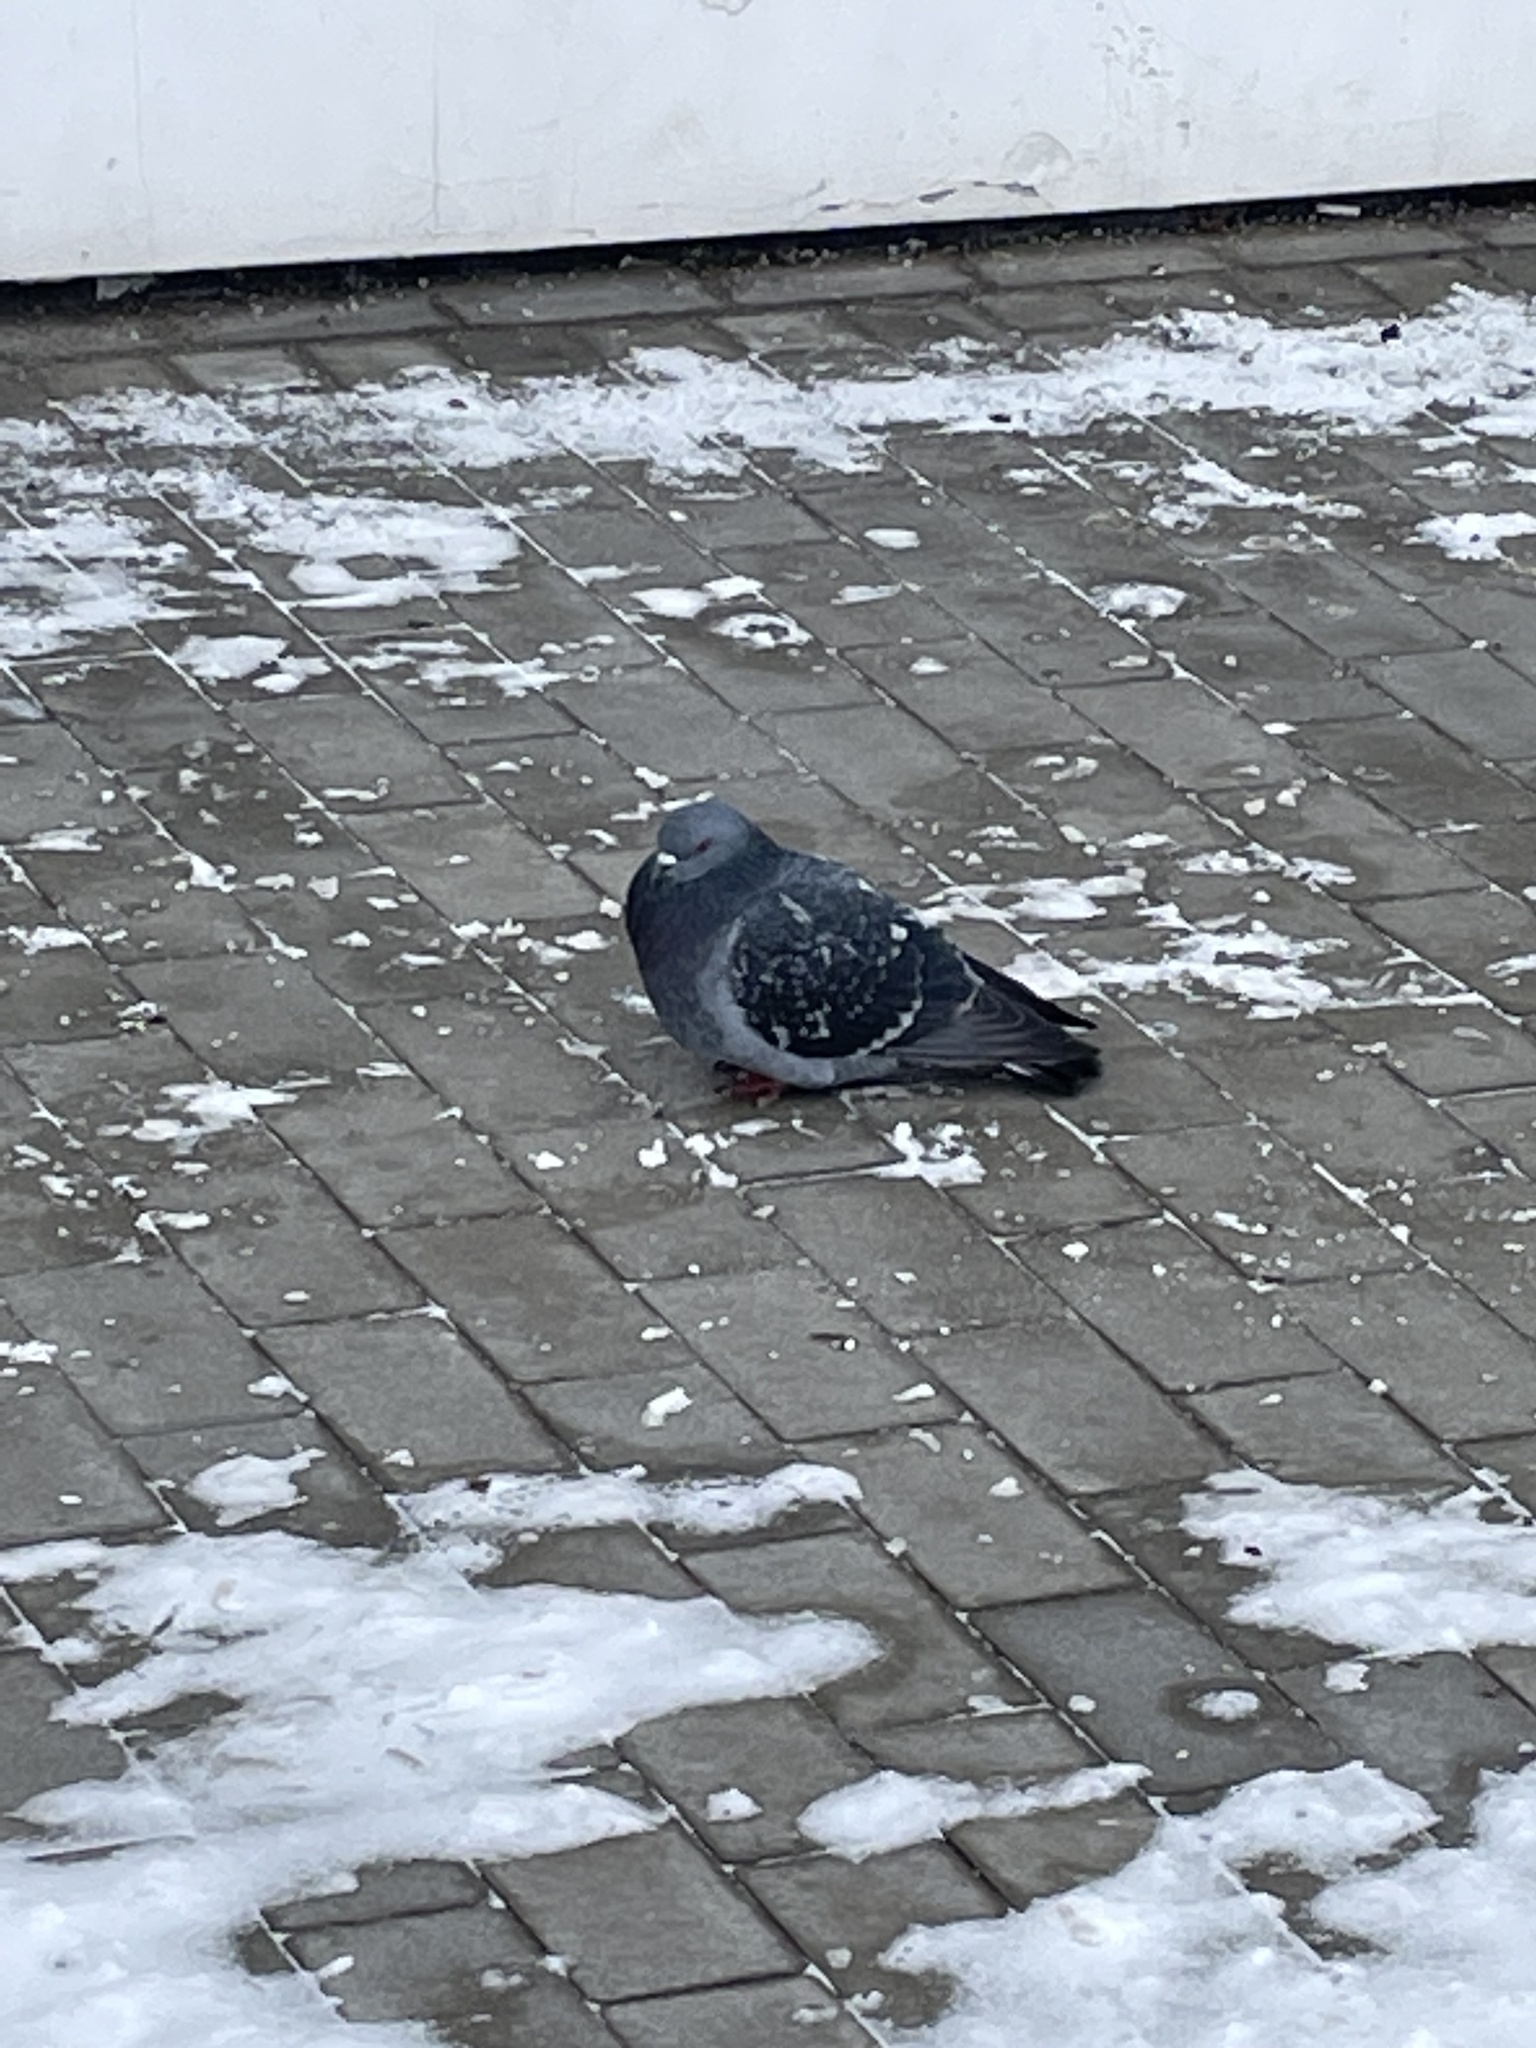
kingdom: Animalia
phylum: Chordata
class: Aves
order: Columbiformes
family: Columbidae
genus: Columba
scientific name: Columba livia
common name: Rock pigeon
